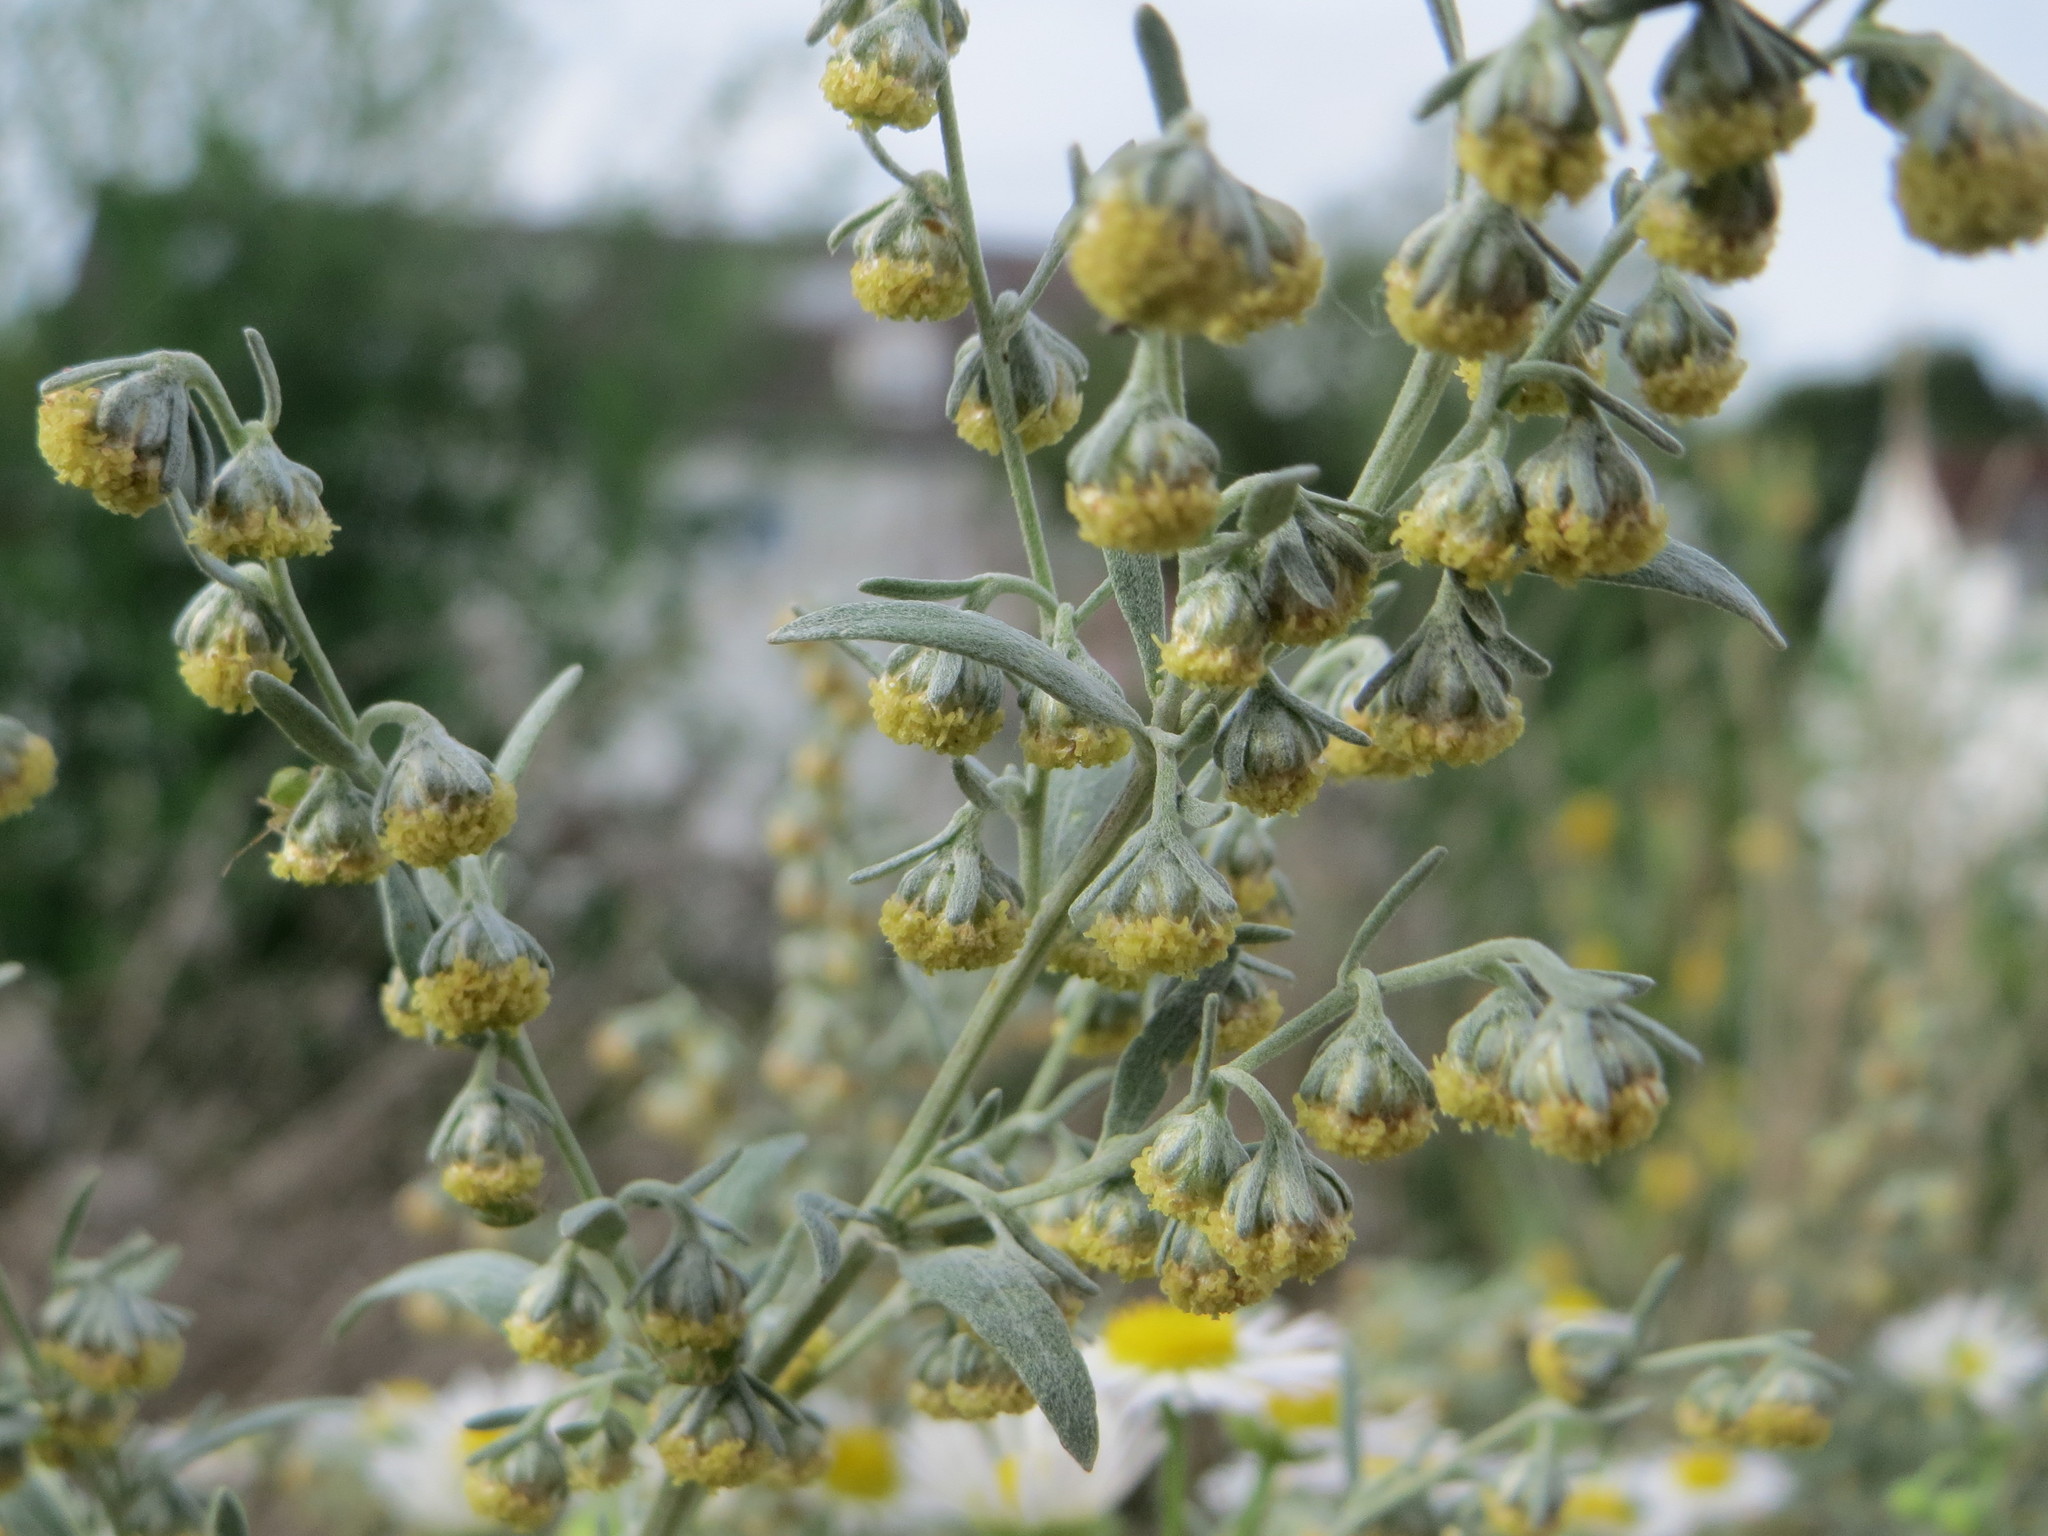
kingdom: Plantae
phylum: Tracheophyta
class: Magnoliopsida
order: Asterales
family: Asteraceae
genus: Artemisia
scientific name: Artemisia absinthium
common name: Wormwood
